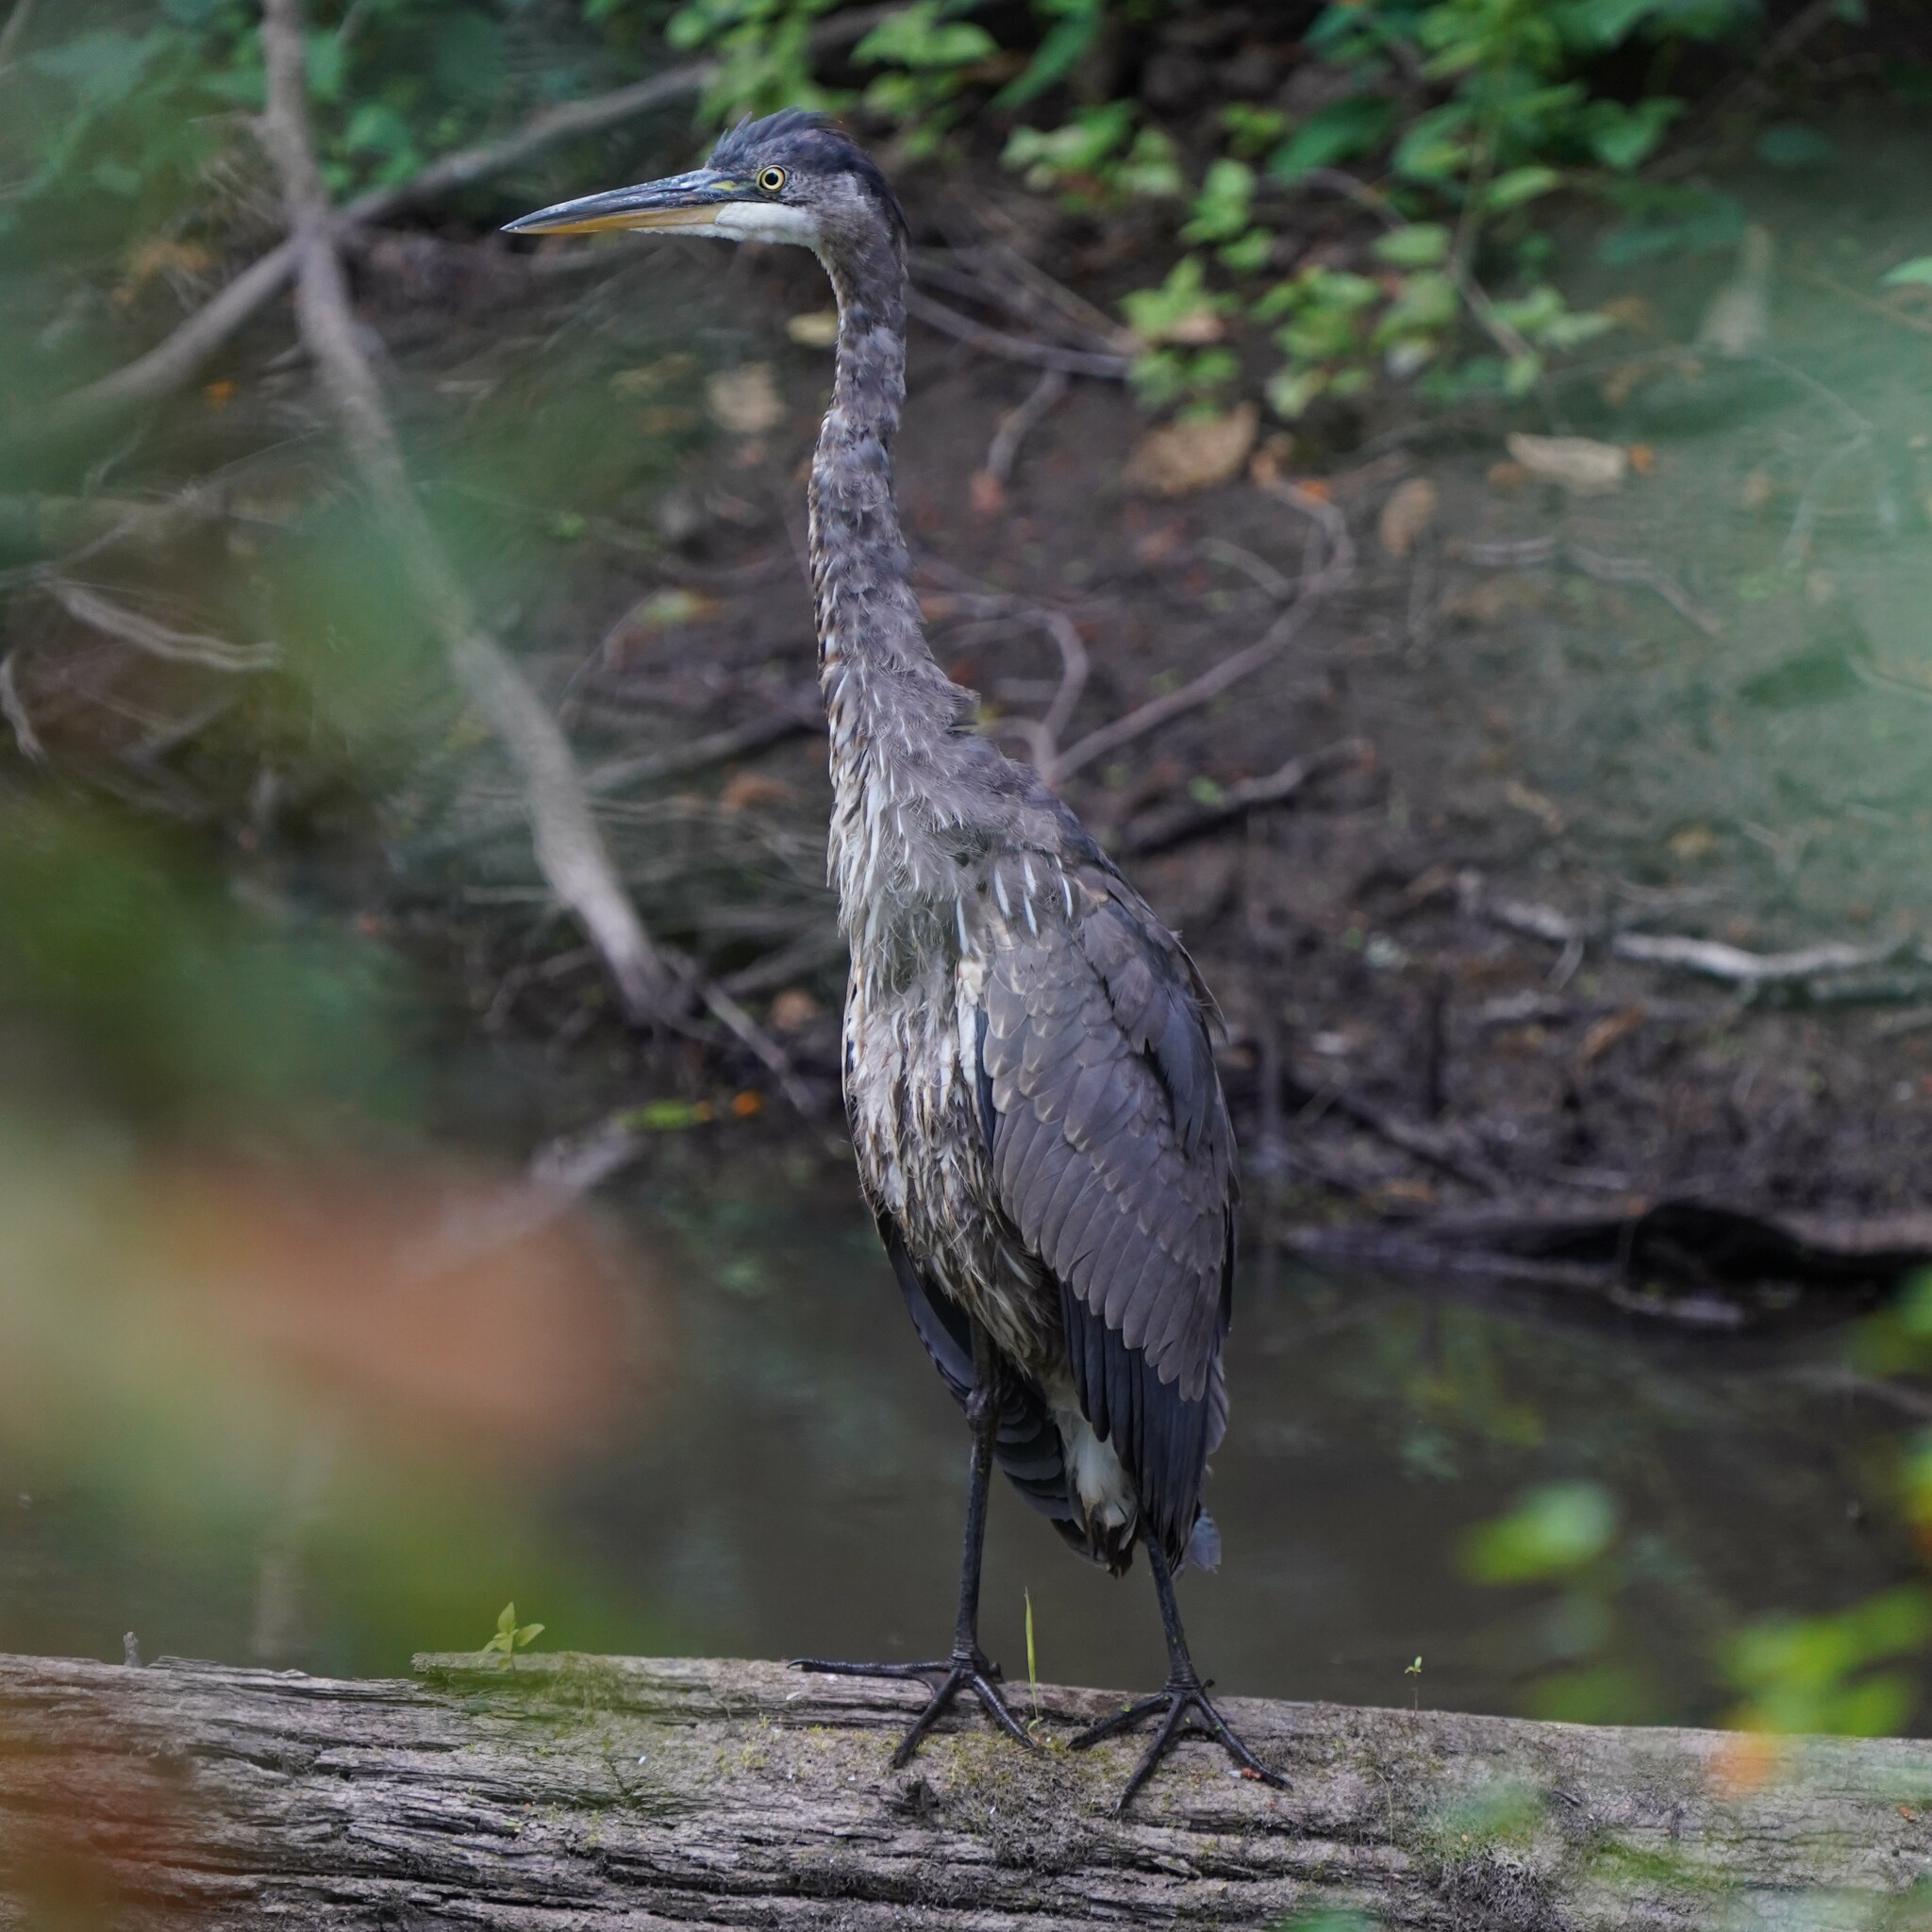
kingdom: Animalia
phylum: Chordata
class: Aves
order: Pelecaniformes
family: Ardeidae
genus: Ardea
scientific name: Ardea herodias
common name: Great blue heron
